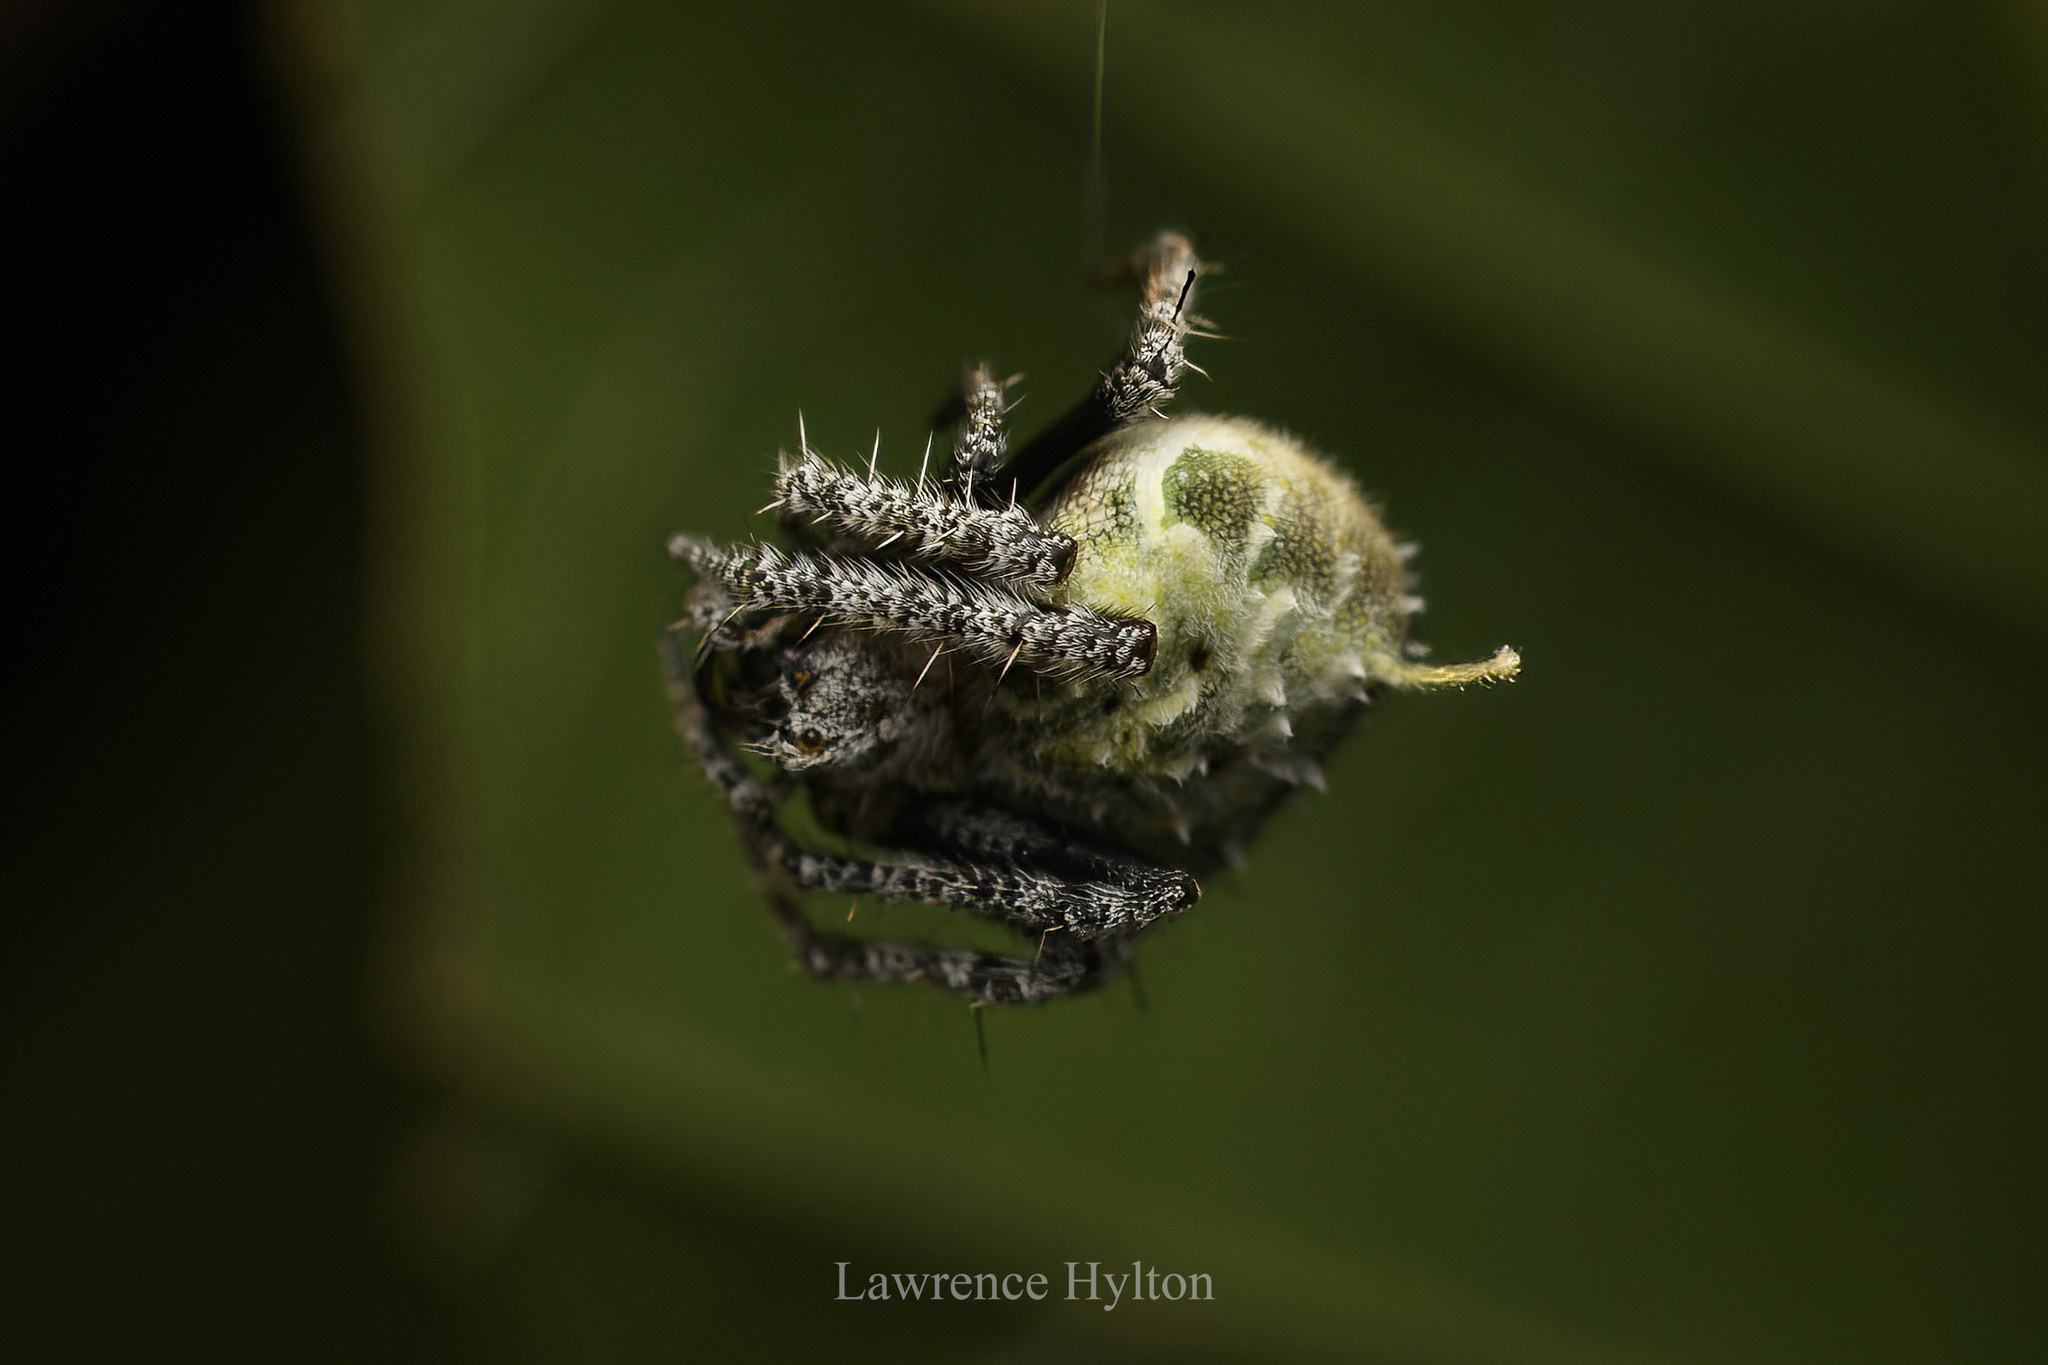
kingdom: Animalia
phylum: Arthropoda
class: Arachnida
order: Araneae
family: Araneidae
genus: Eriovixia
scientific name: Eriovixia laglaizei
